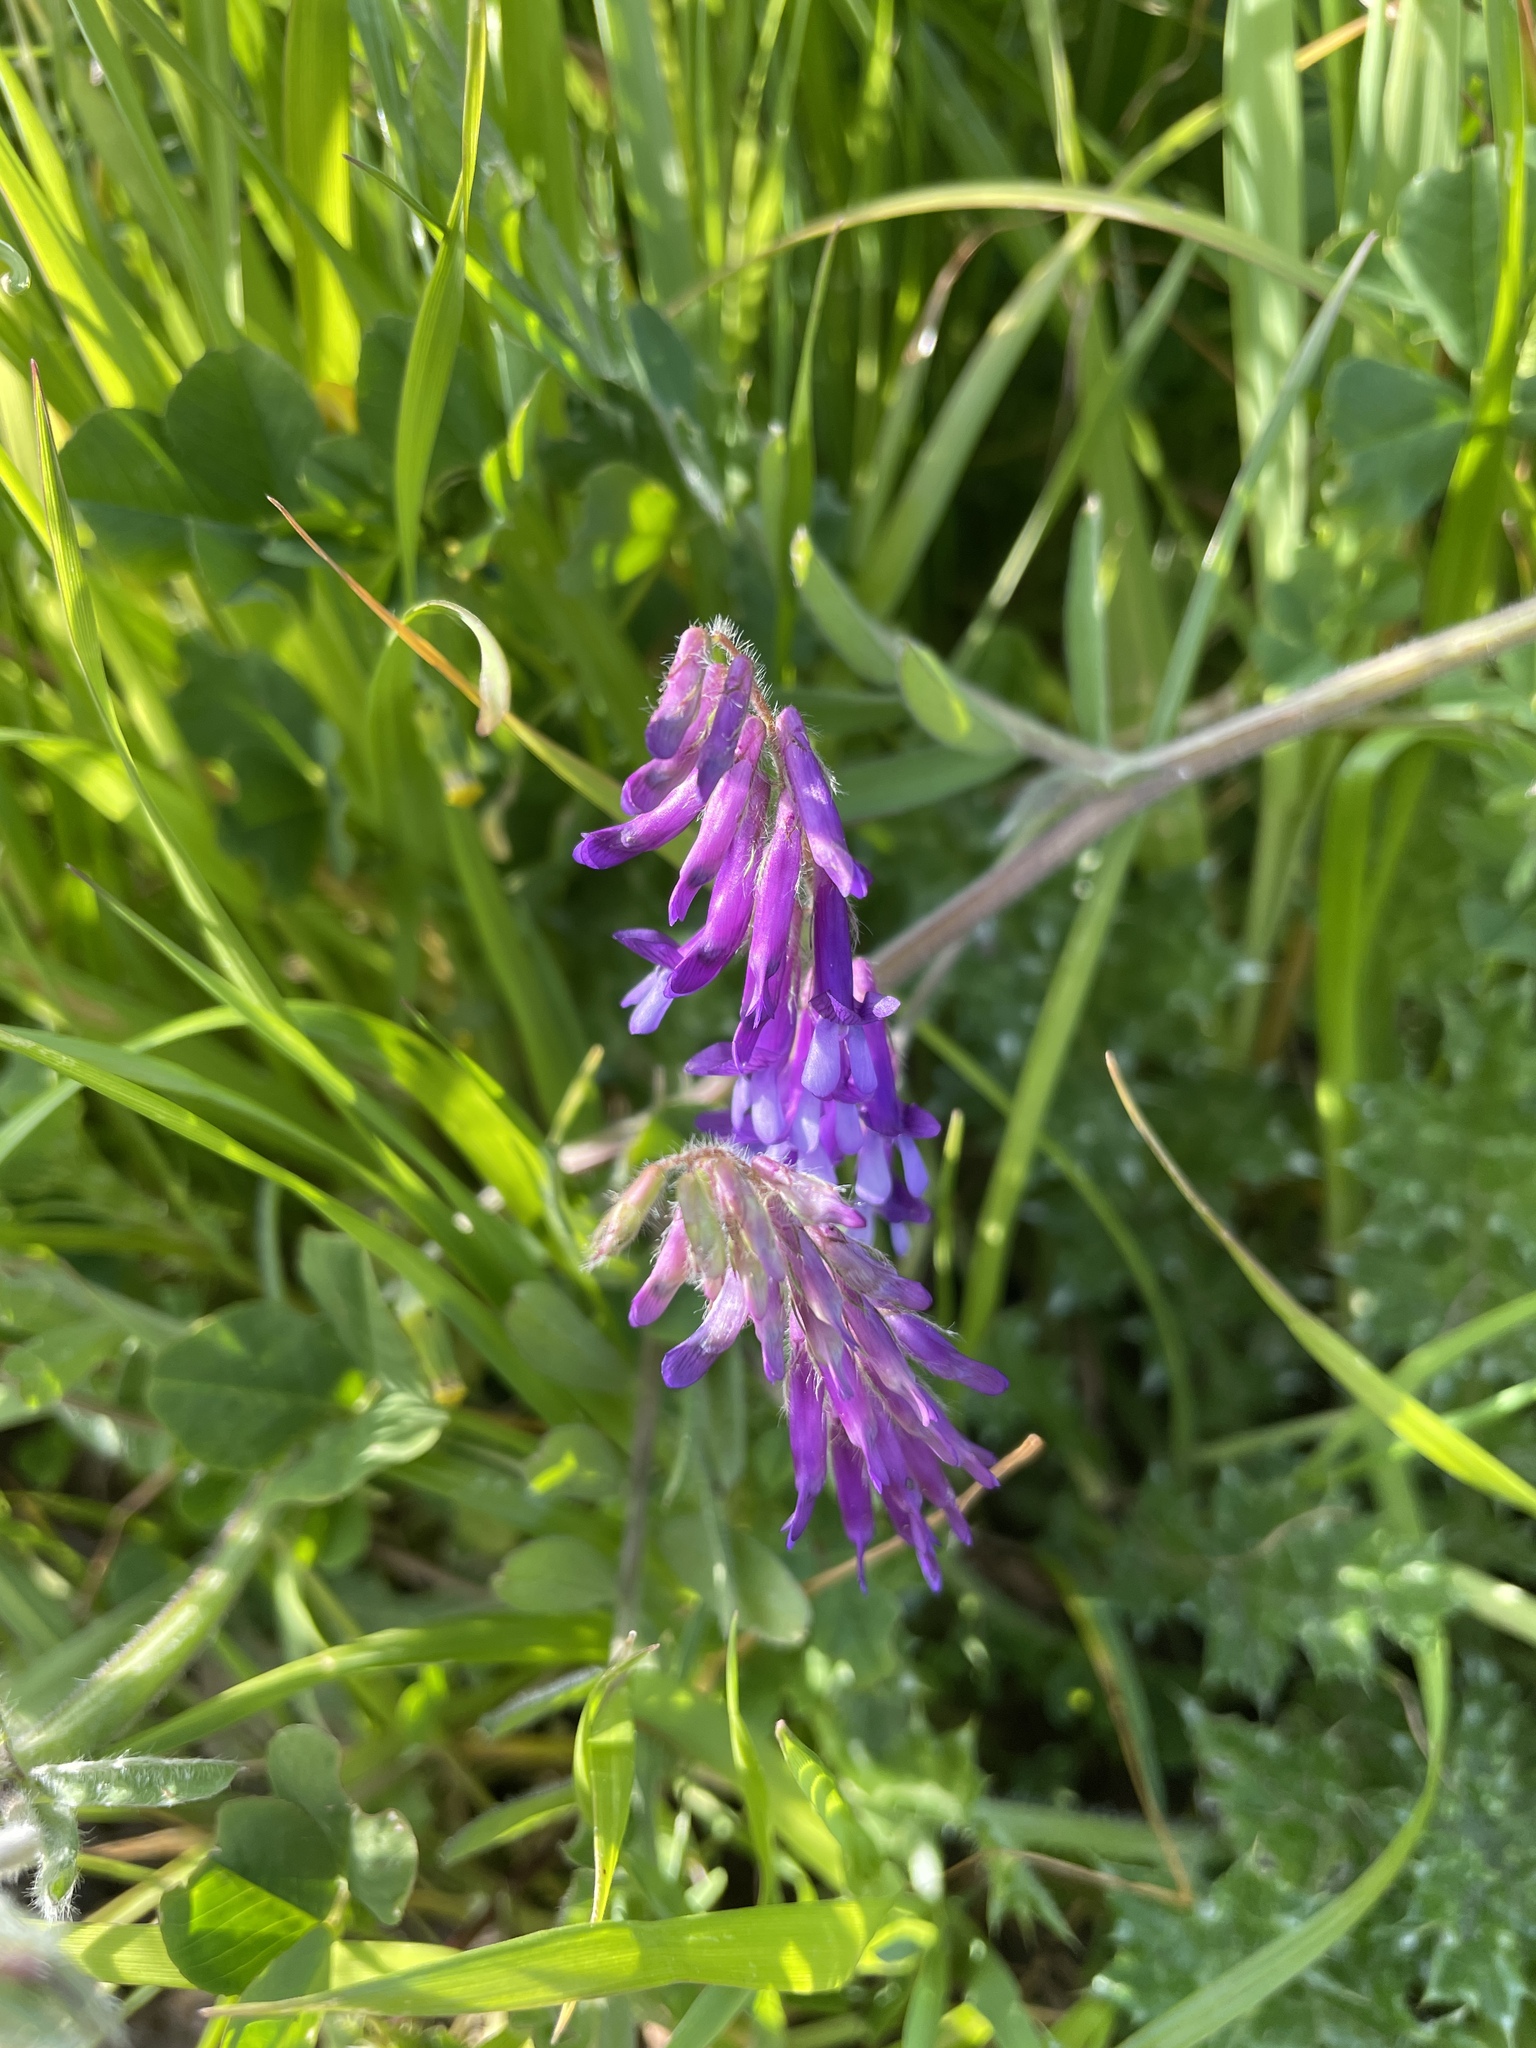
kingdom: Plantae
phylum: Tracheophyta
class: Magnoliopsida
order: Fabales
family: Fabaceae
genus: Vicia
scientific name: Vicia villosa
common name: Fodder vetch
